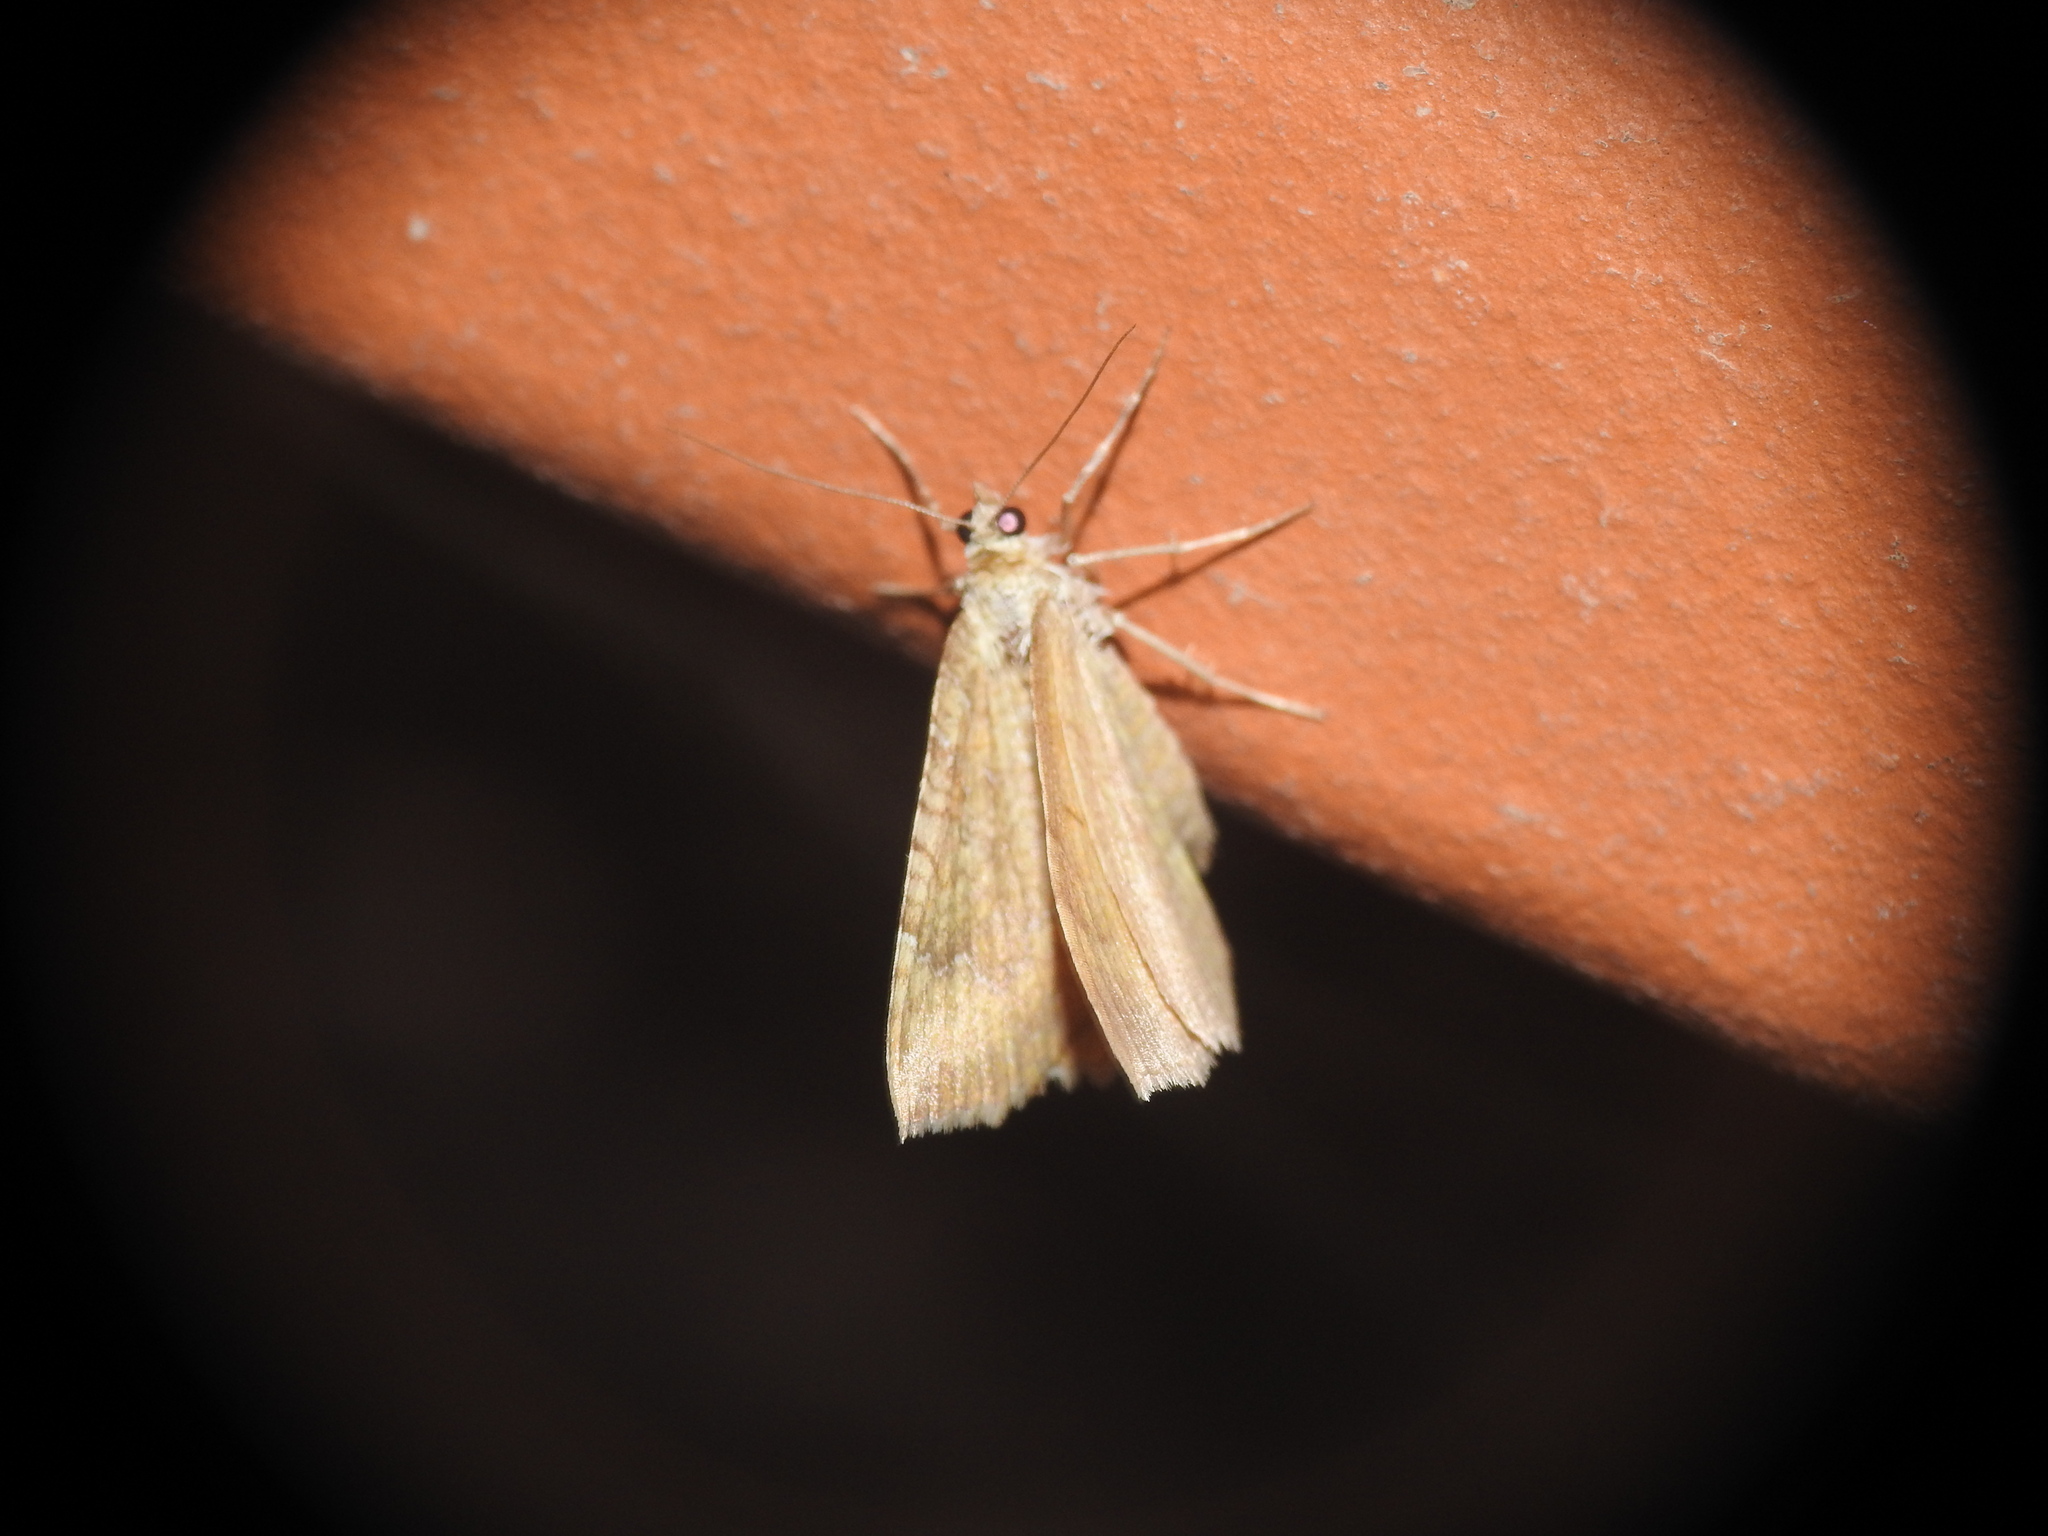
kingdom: Animalia
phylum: Arthropoda
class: Insecta
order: Lepidoptera
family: Geometridae
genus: Camptogramma
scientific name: Camptogramma bilineata
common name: Yellow shell
